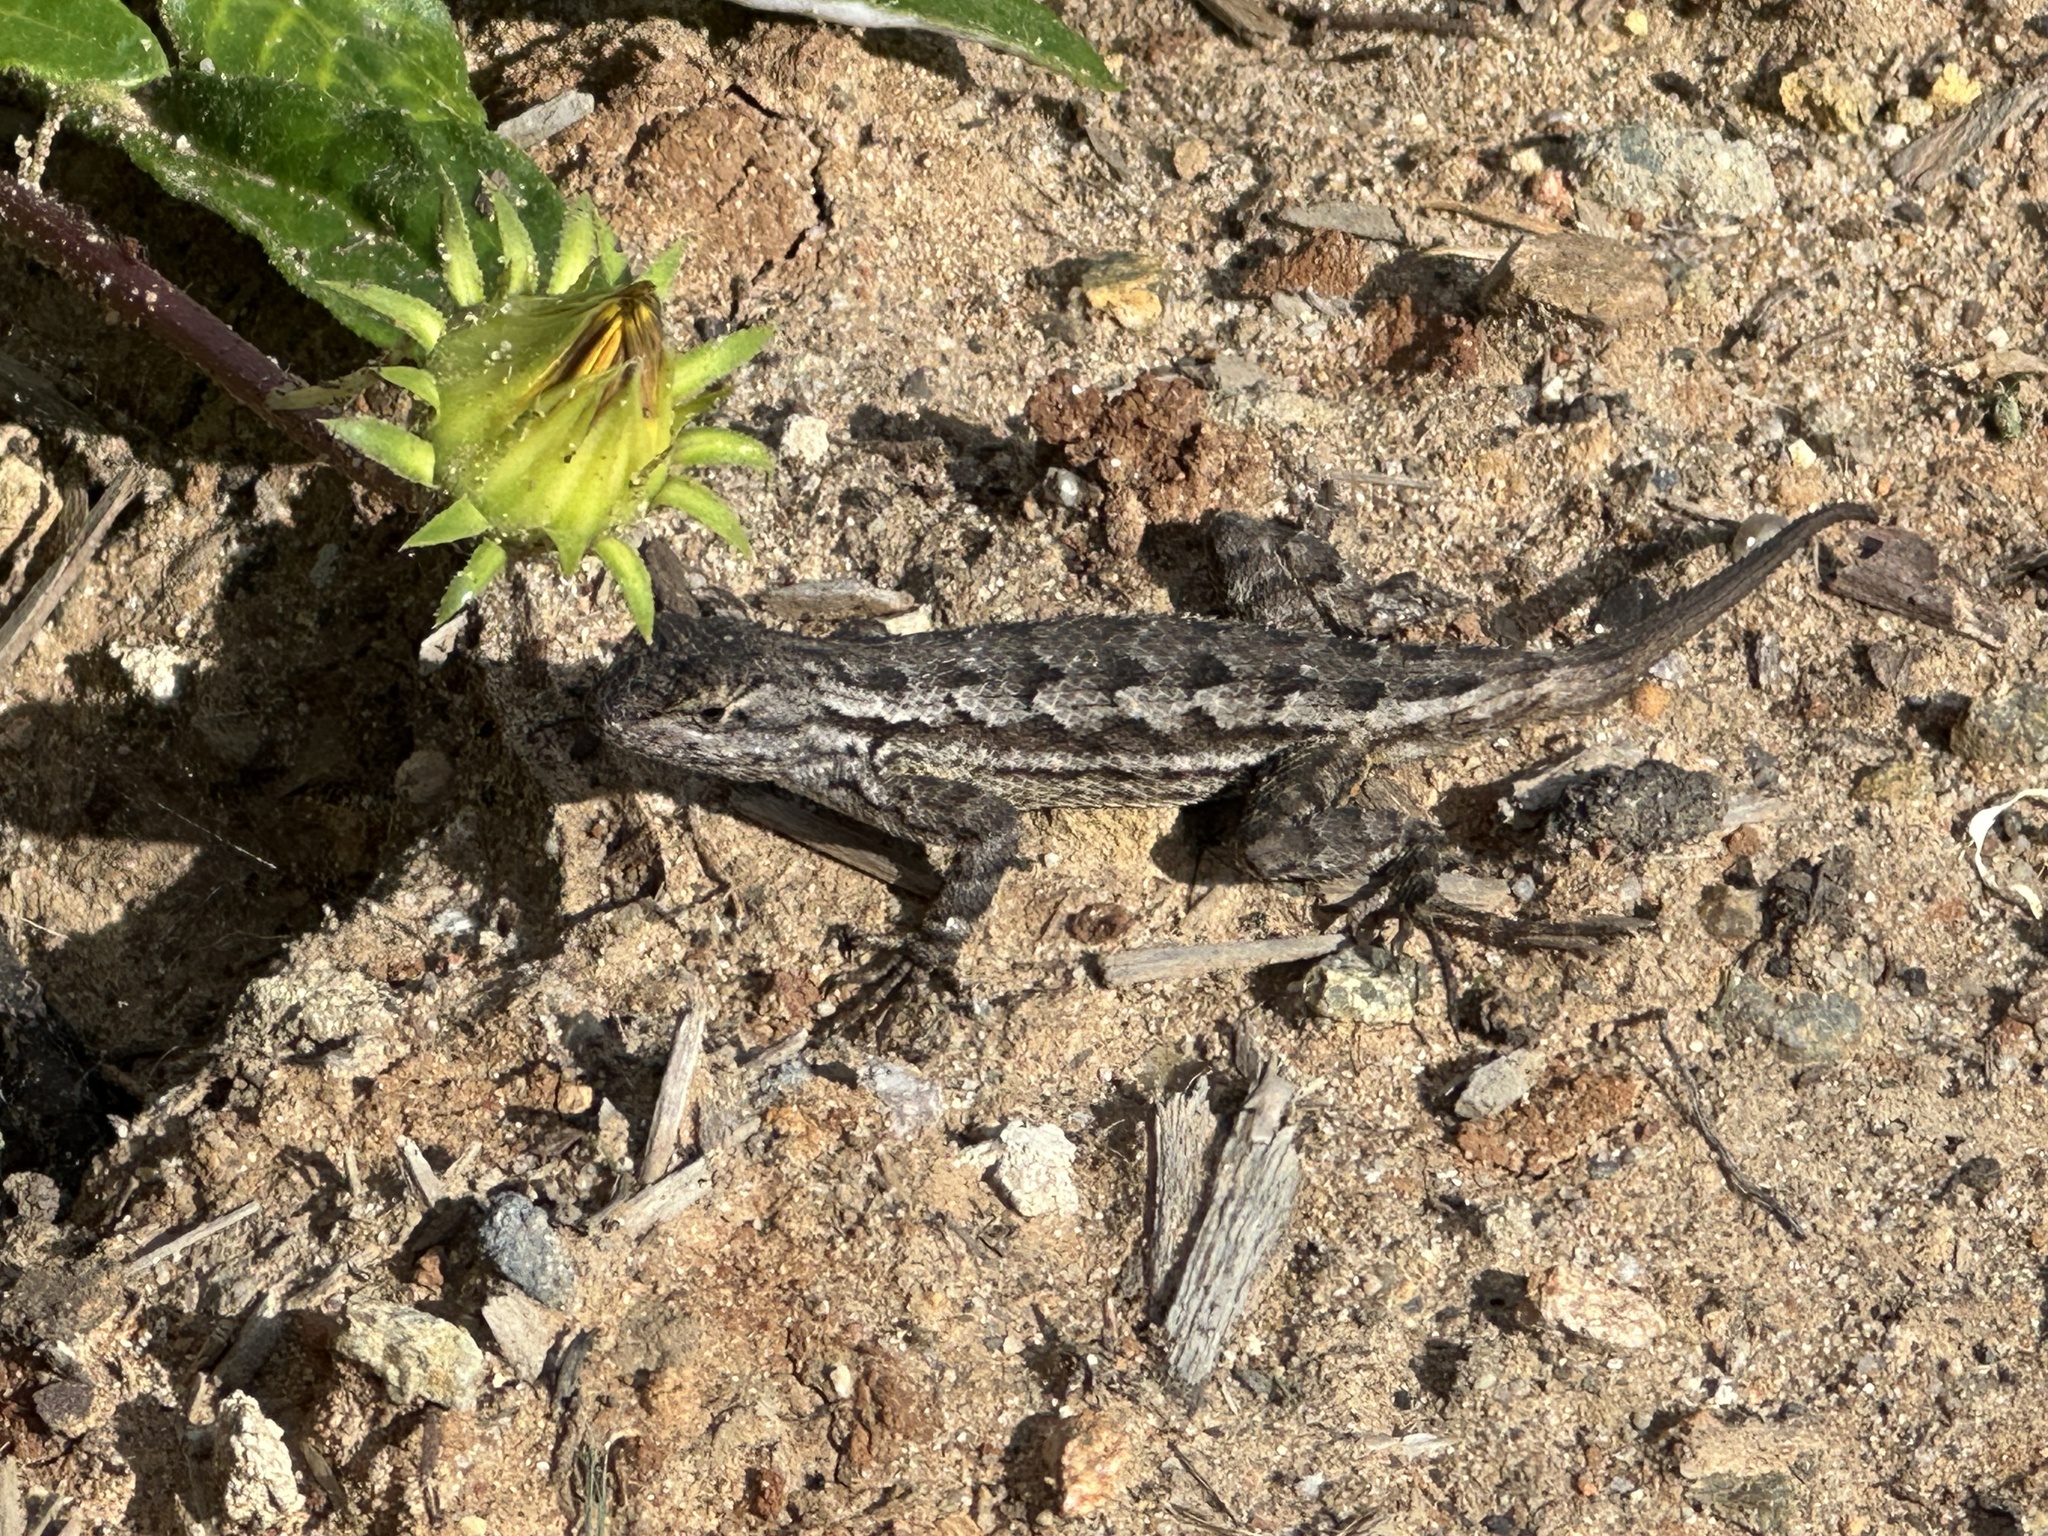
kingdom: Animalia
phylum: Chordata
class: Squamata
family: Phrynosomatidae
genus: Sceloporus
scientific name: Sceloporus occidentalis
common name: Western fence lizard
